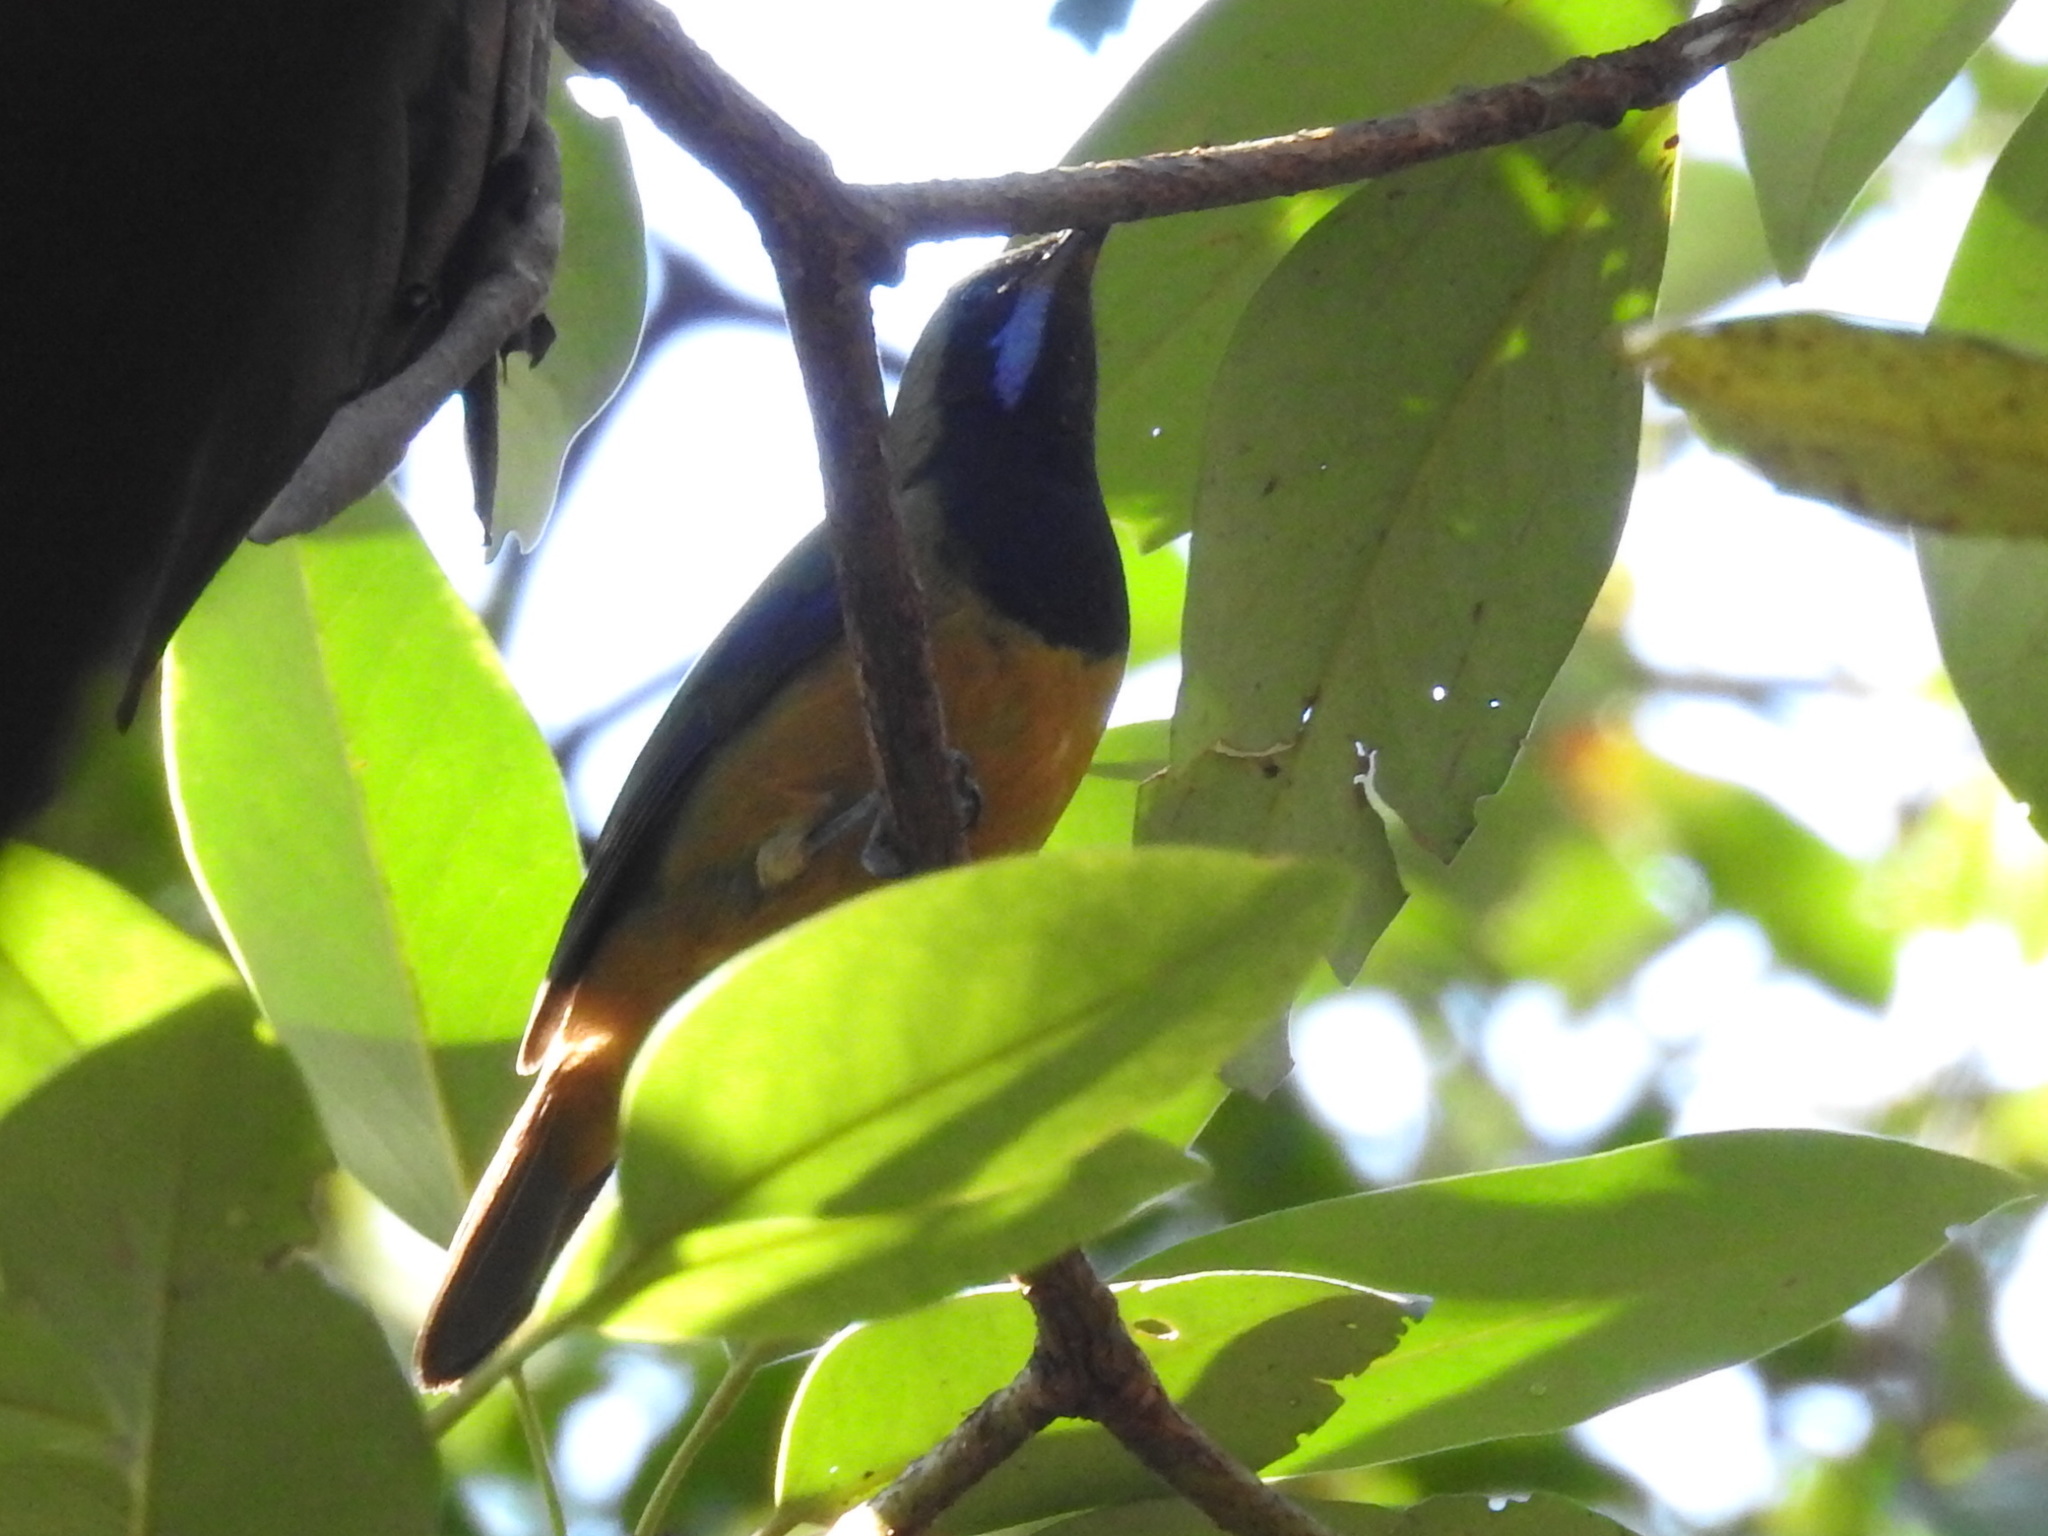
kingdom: Animalia
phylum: Chordata
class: Aves
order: Passeriformes
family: Chloropseidae
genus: Chloropsis
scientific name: Chloropsis hardwickii
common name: Orange-bellied leafbird
